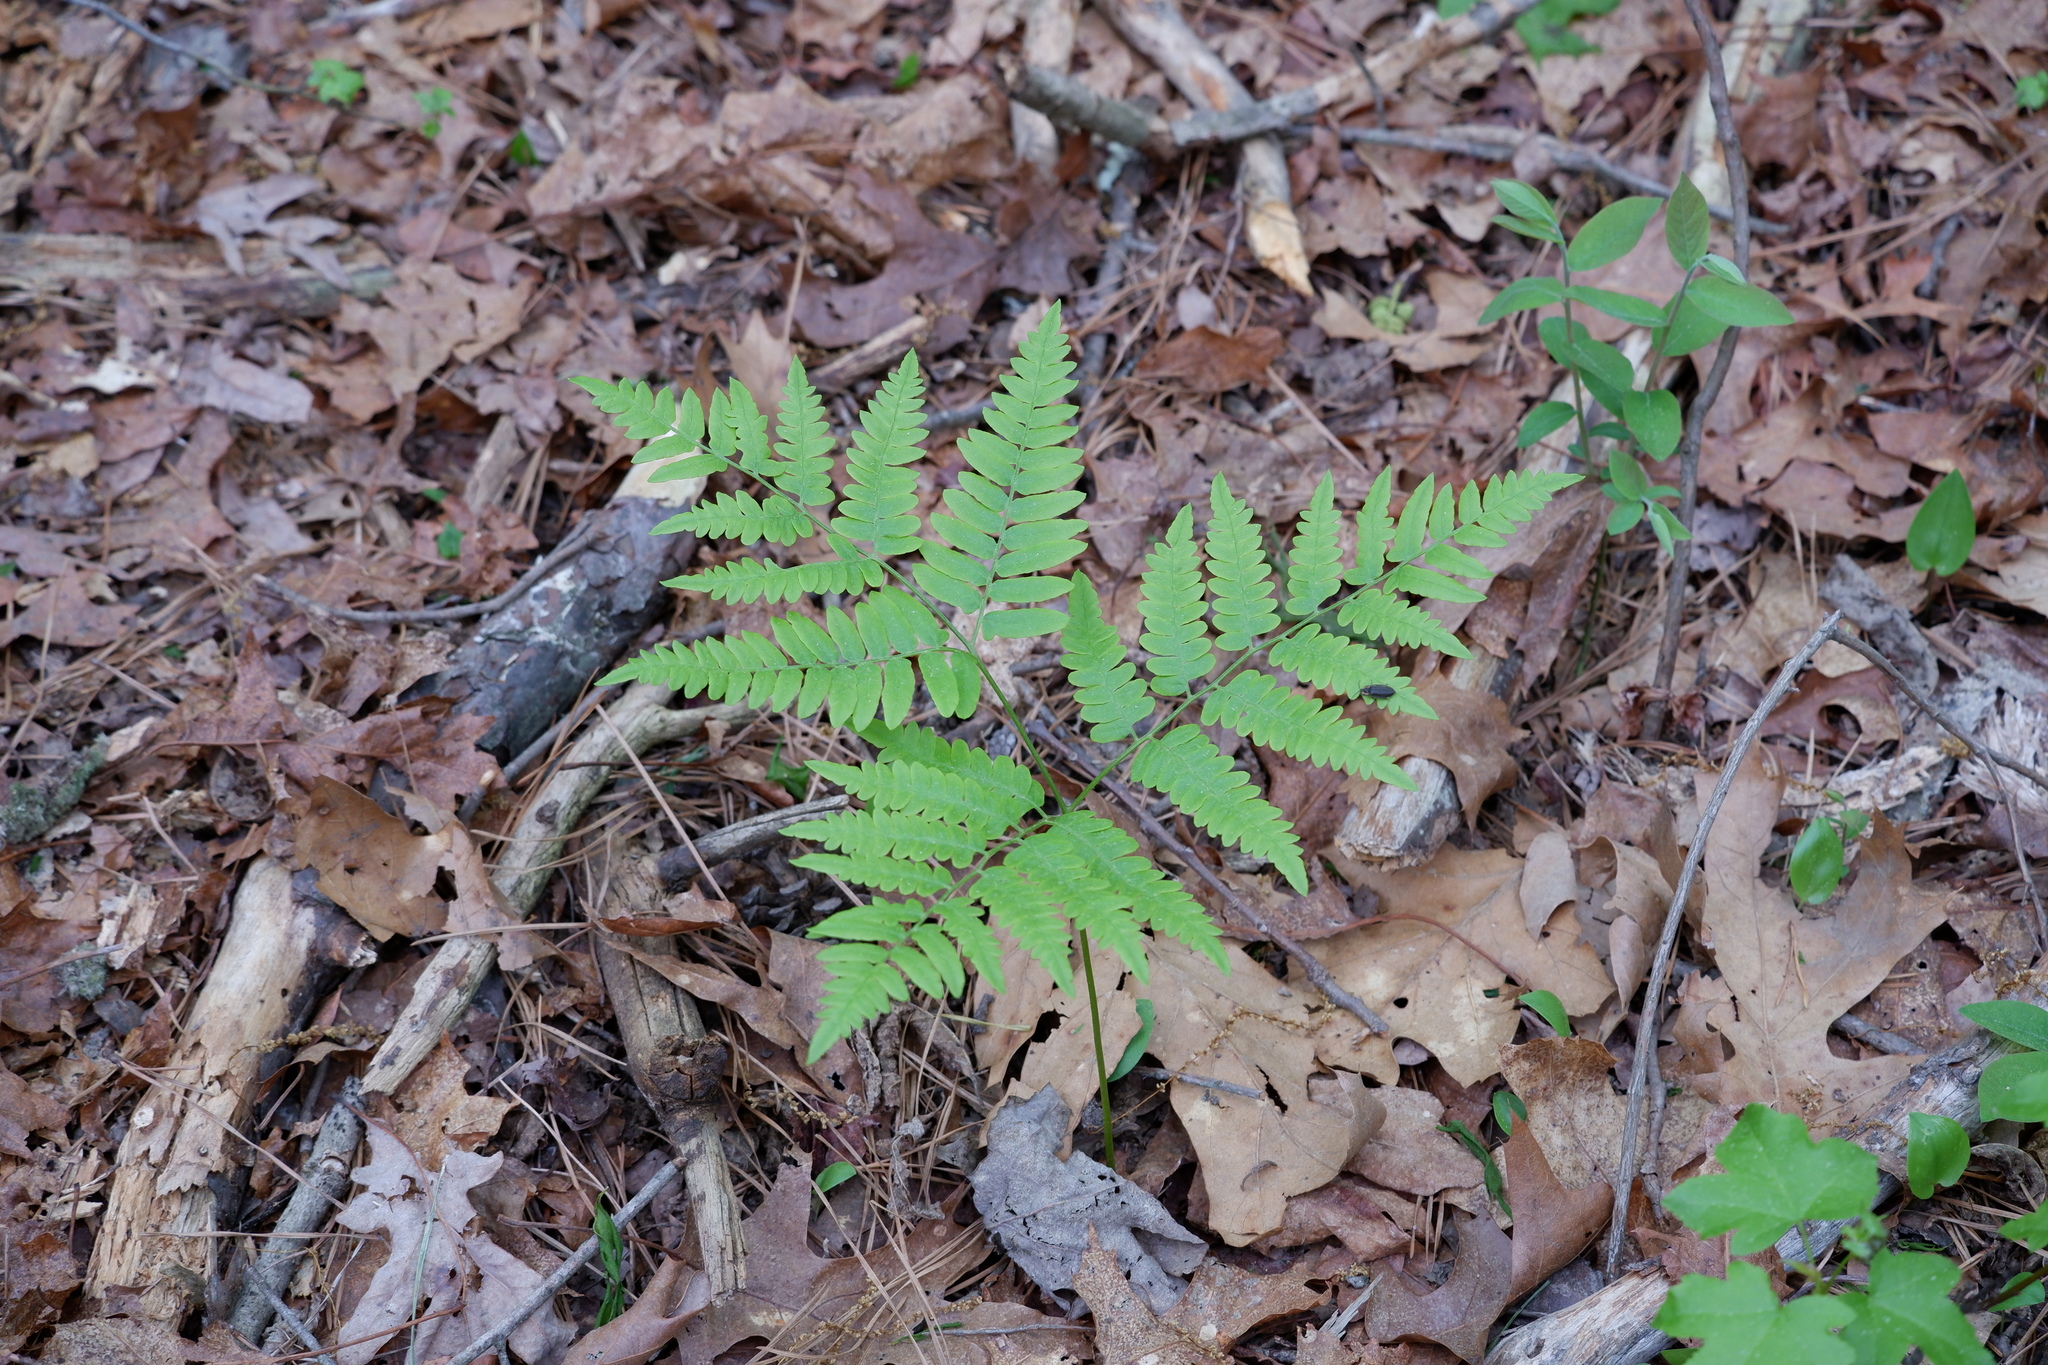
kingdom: Plantae
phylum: Tracheophyta
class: Polypodiopsida
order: Polypodiales
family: Dennstaedtiaceae
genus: Pteridium
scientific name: Pteridium aquilinum
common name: Bracken
